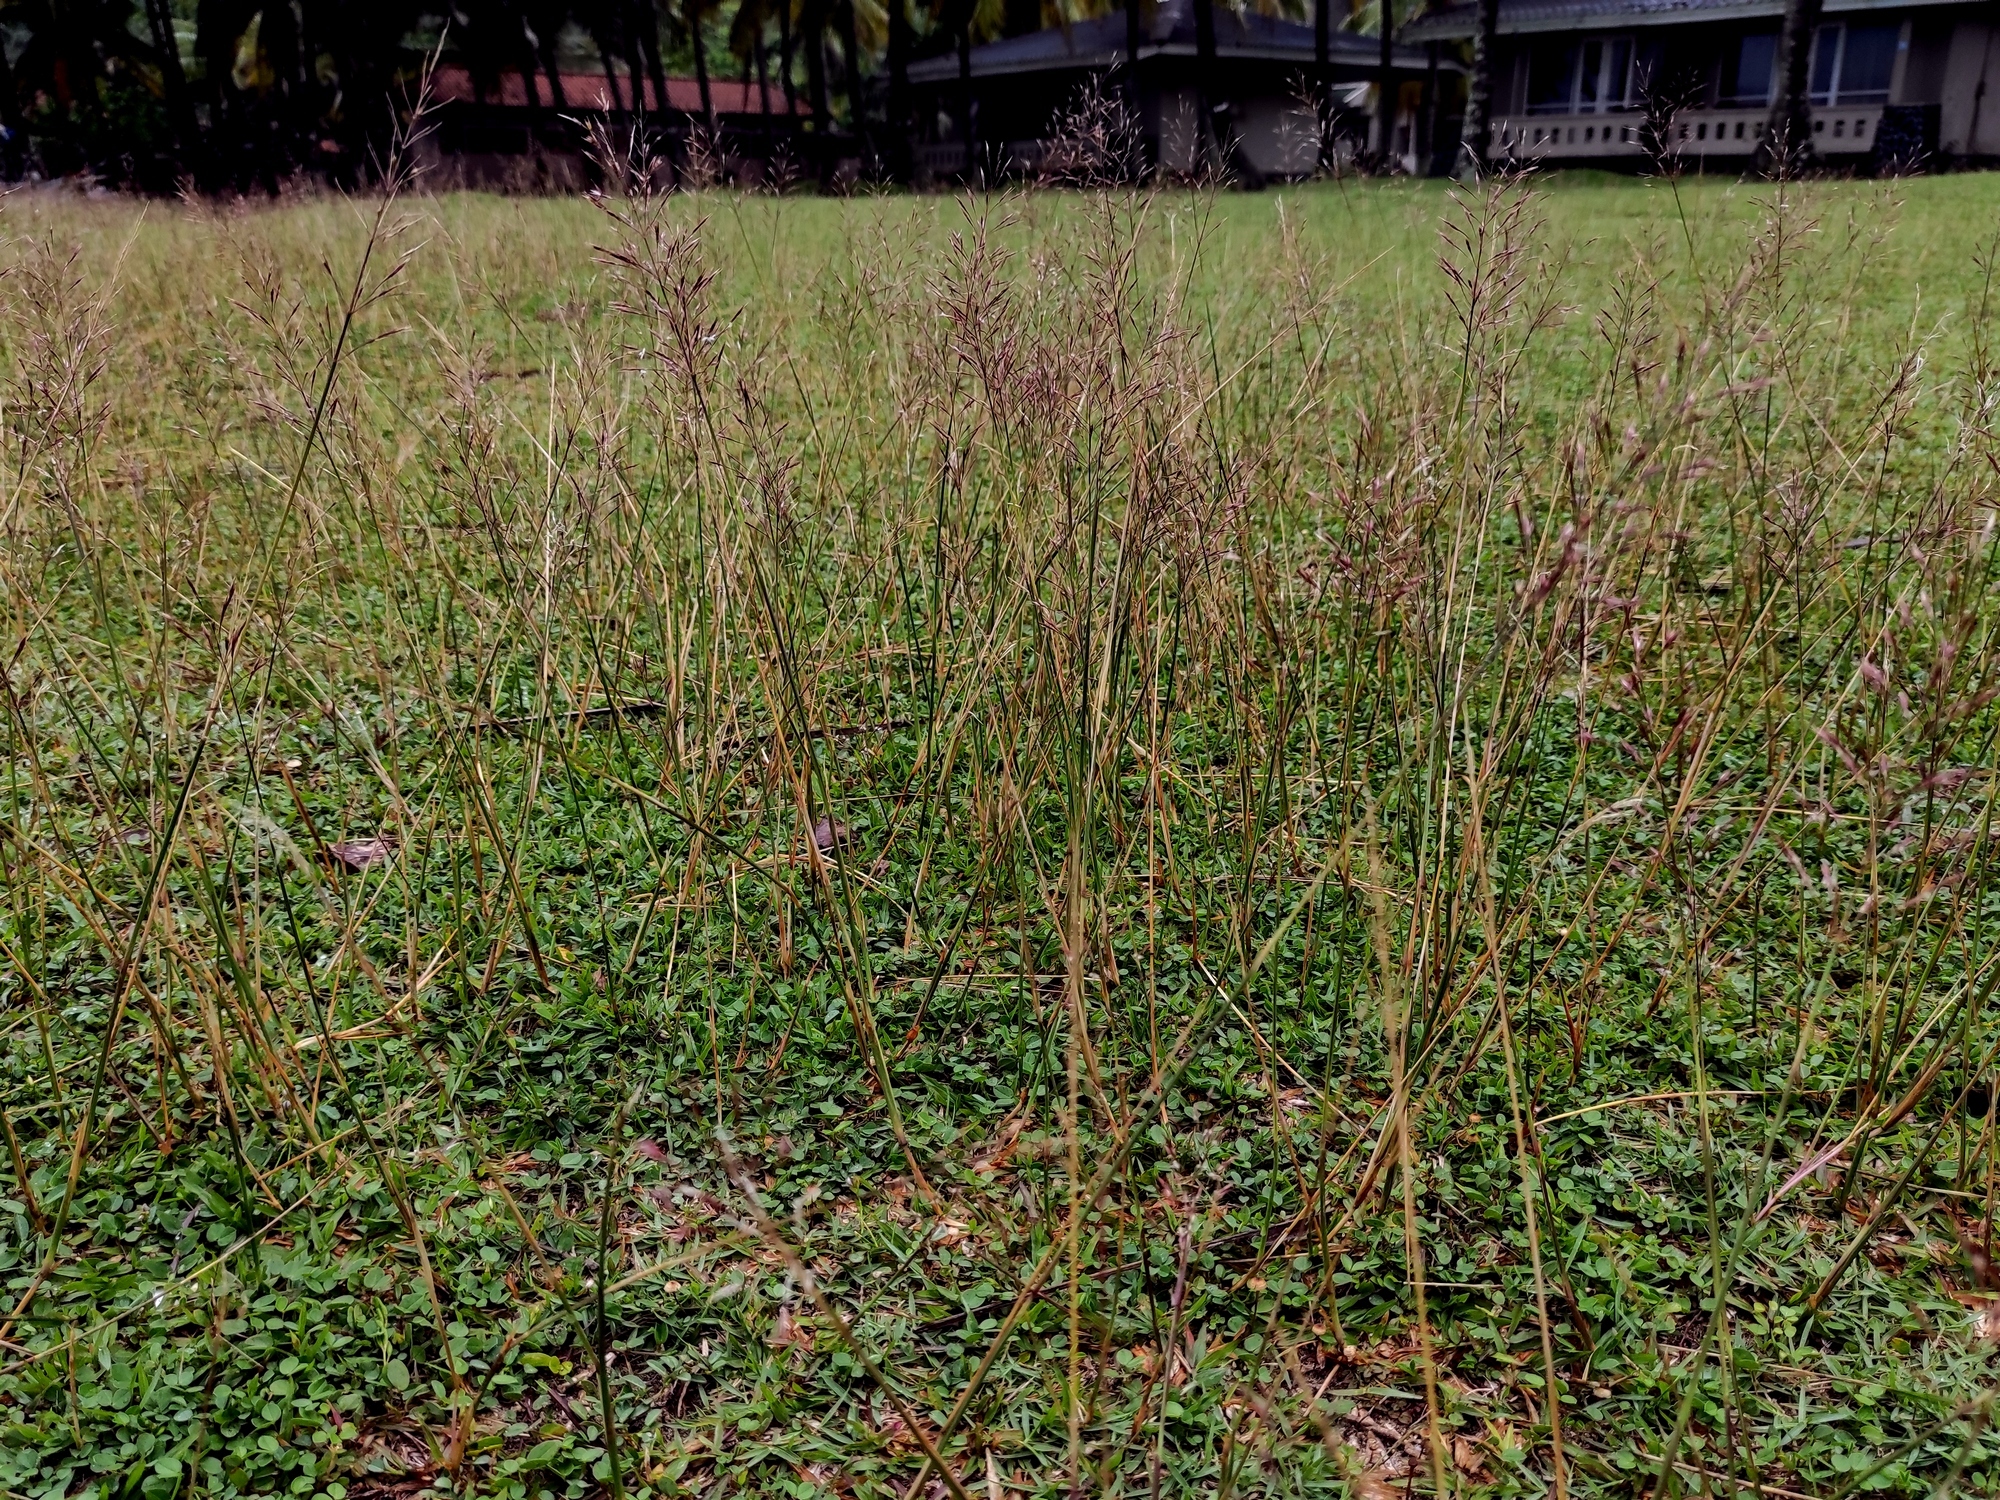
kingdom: Plantae
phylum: Tracheophyta
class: Liliopsida
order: Poales
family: Poaceae
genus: Chrysopogon
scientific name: Chrysopogon aciculatus
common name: Pilipiliula
